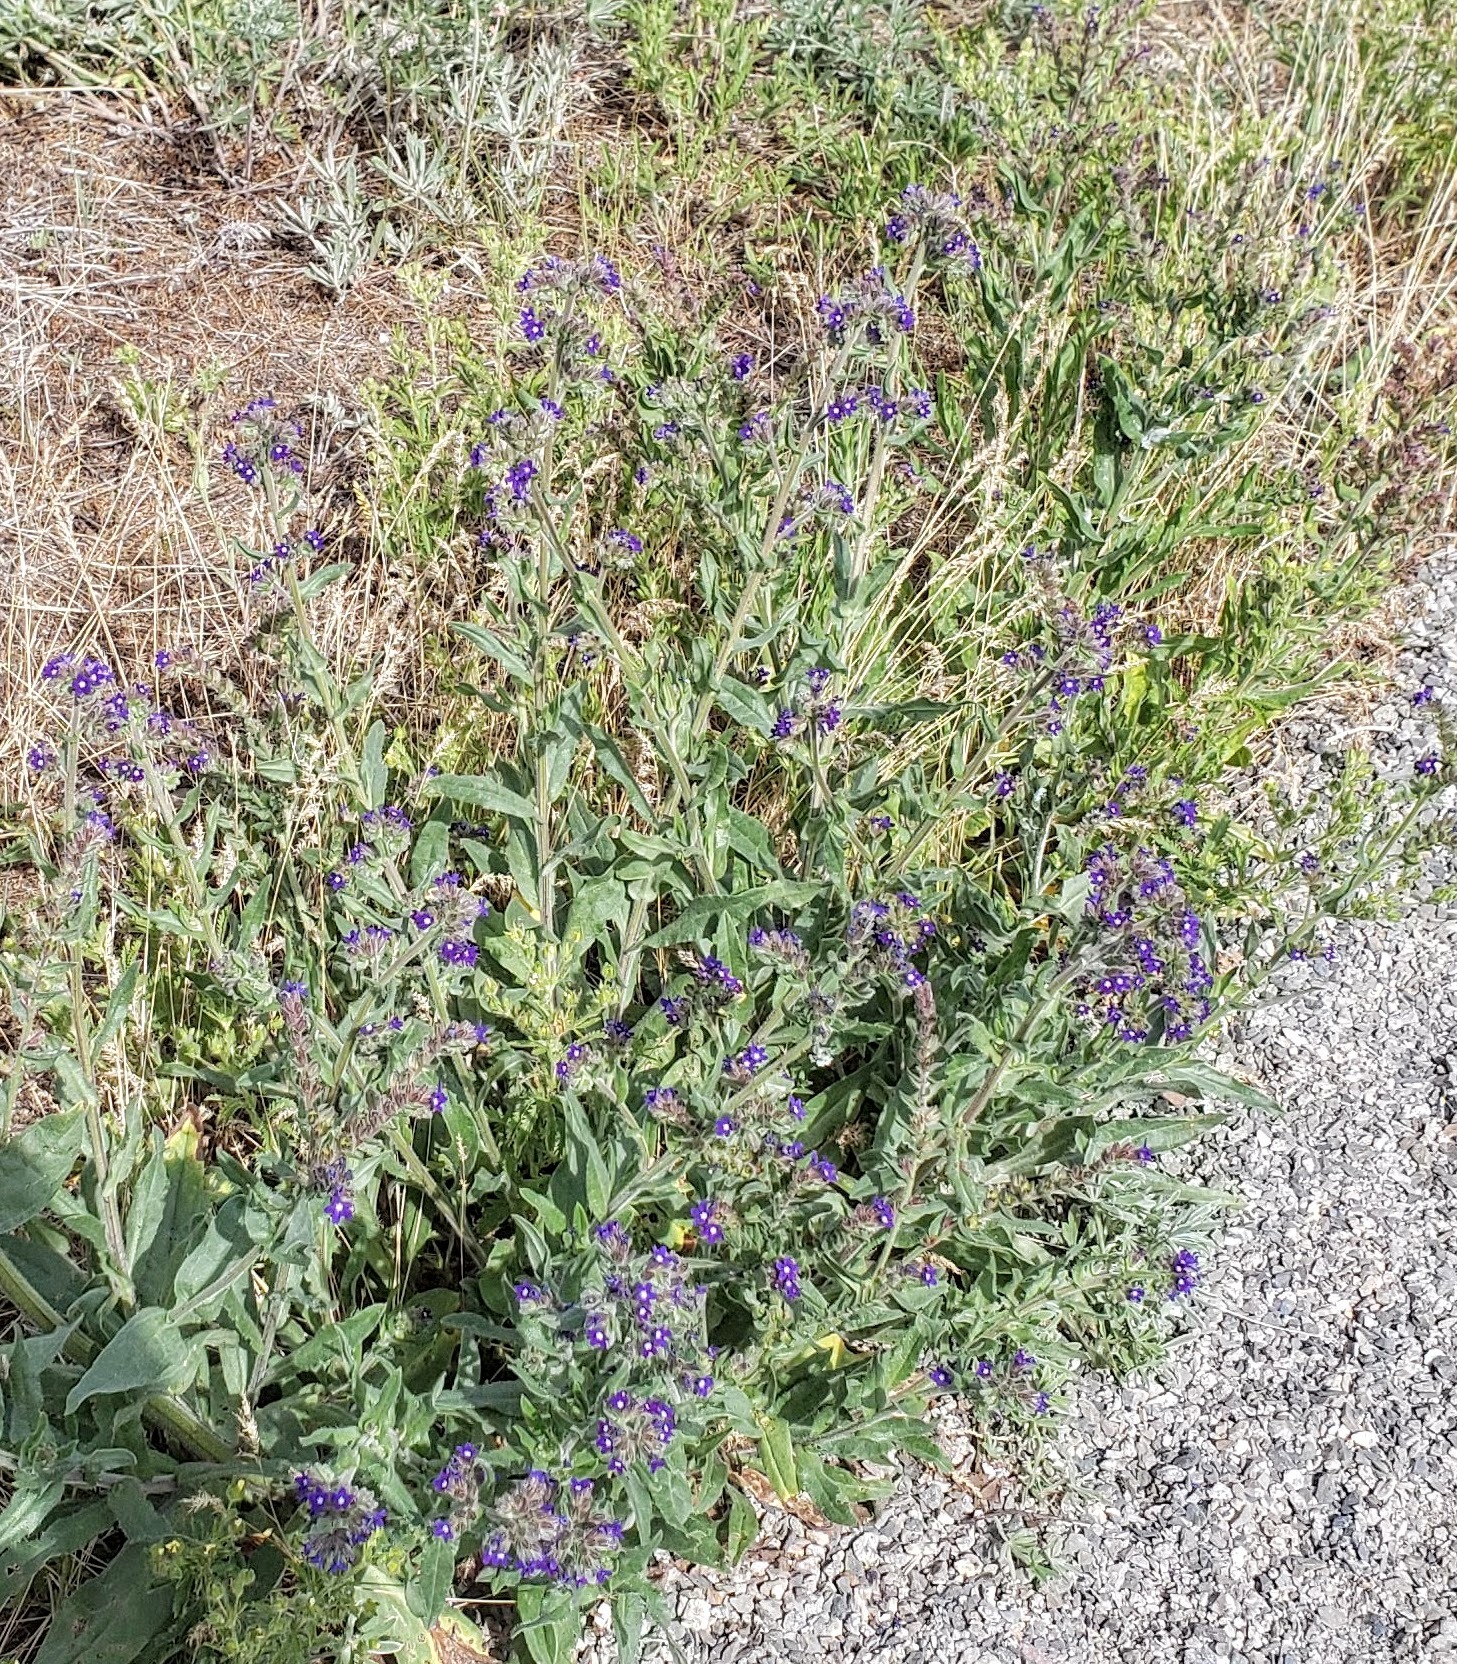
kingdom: Plantae
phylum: Tracheophyta
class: Magnoliopsida
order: Boraginales
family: Boraginaceae
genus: Anchusa
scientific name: Anchusa officinalis
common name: Alkanet
